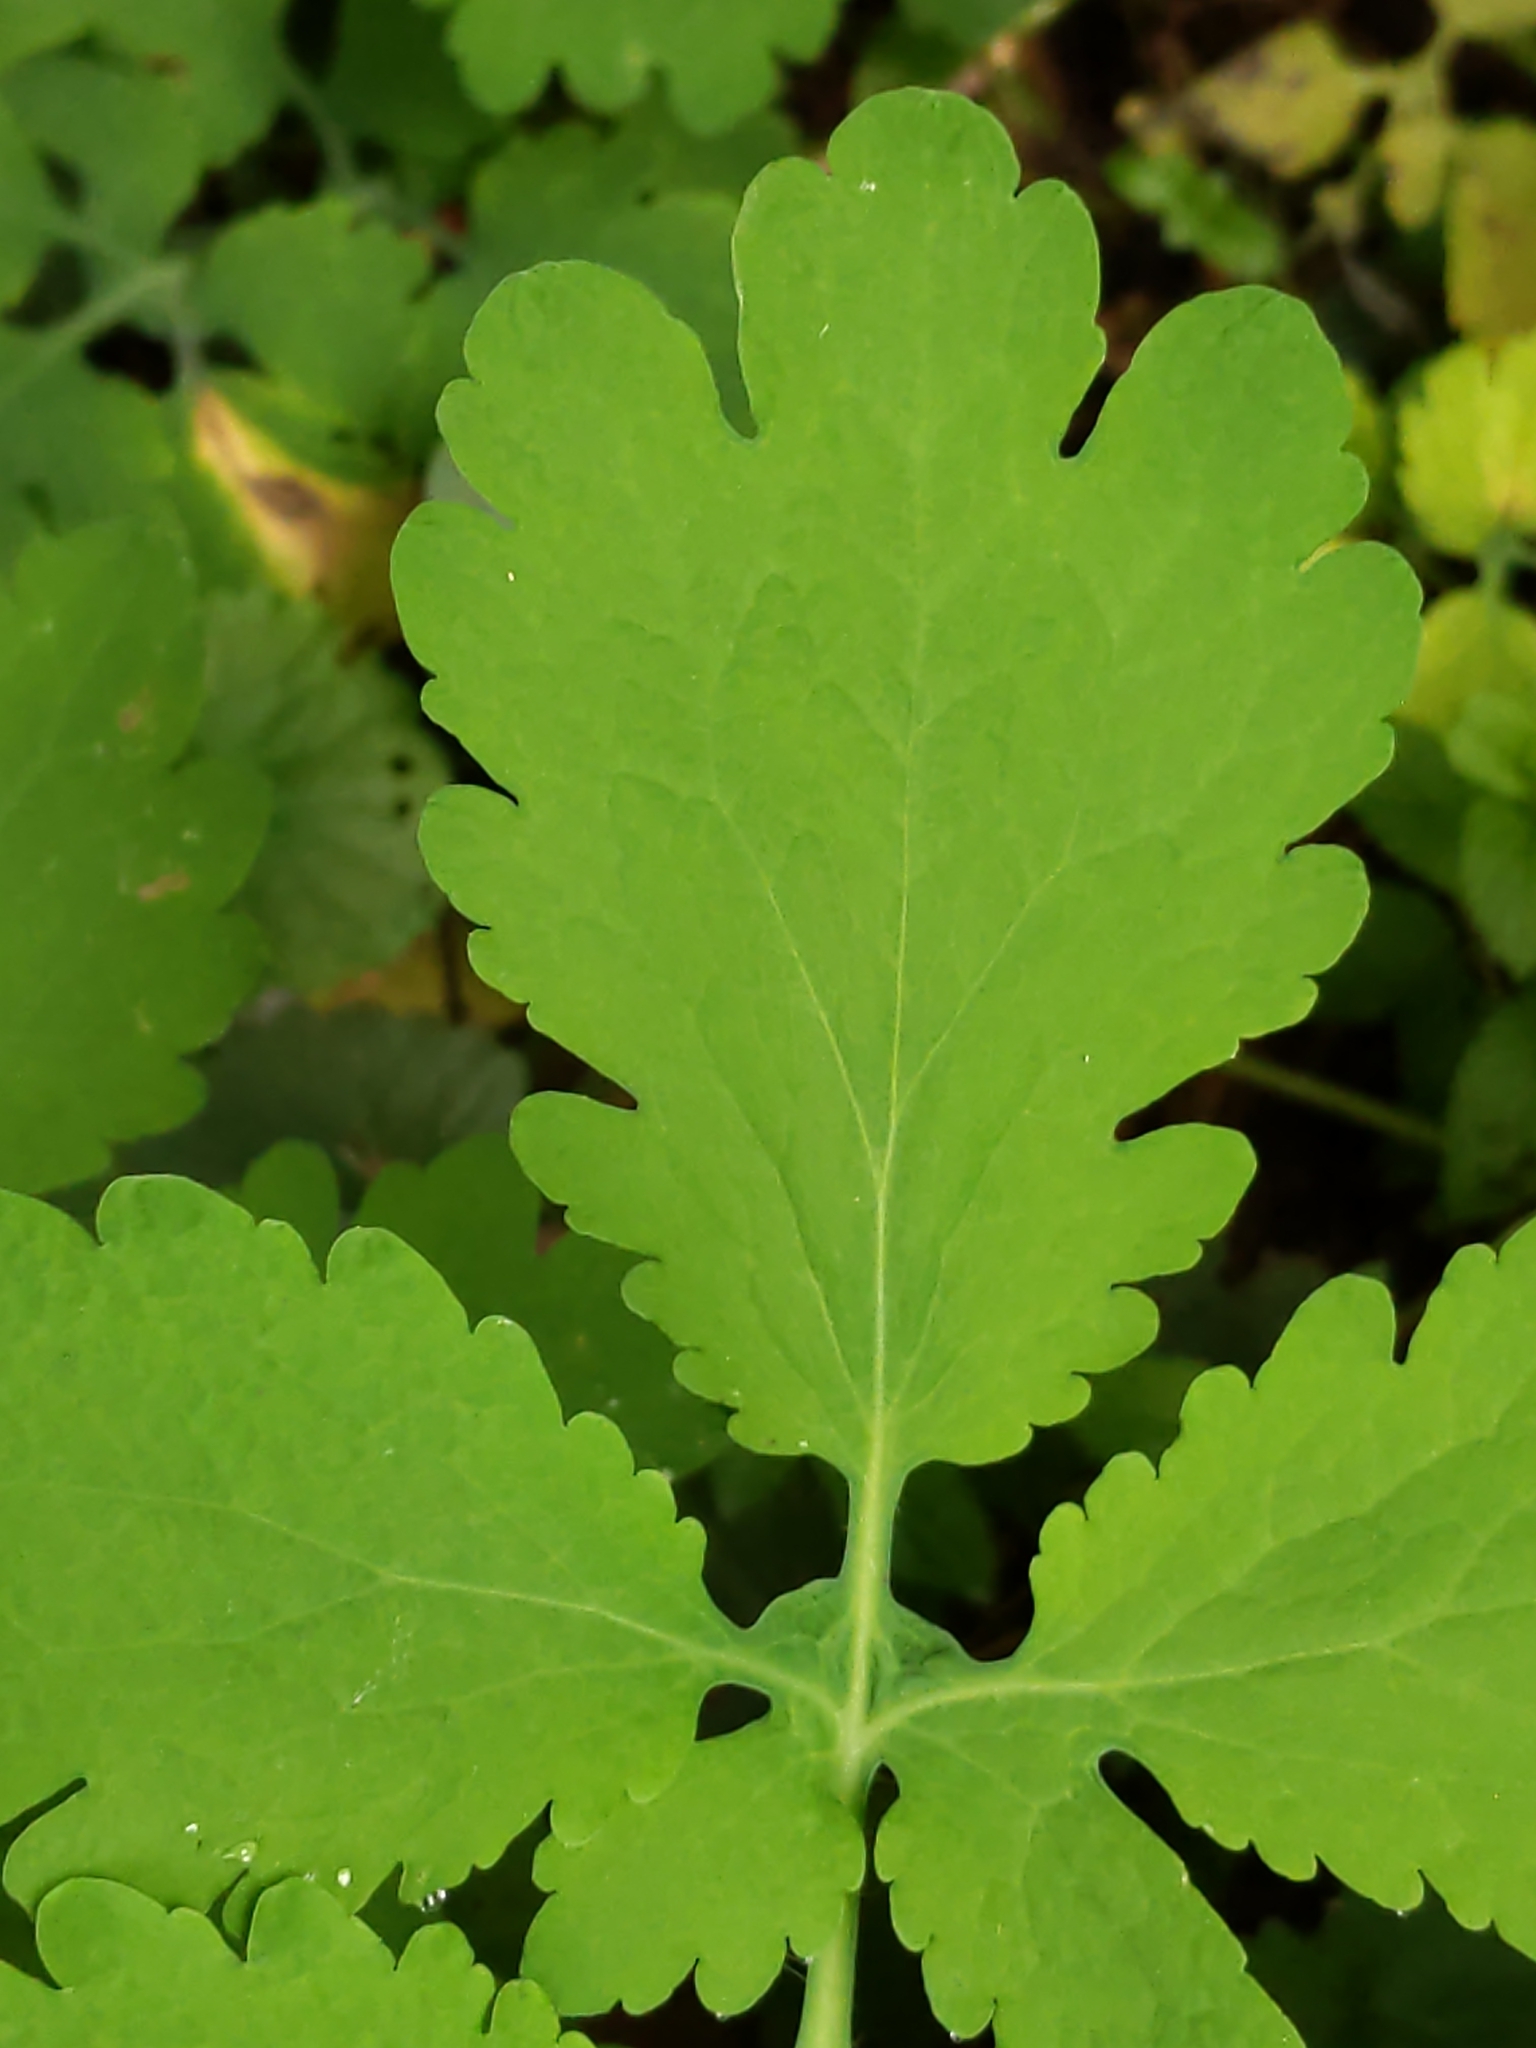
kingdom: Plantae
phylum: Tracheophyta
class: Magnoliopsida
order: Ranunculales
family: Papaveraceae
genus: Chelidonium
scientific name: Chelidonium majus
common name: Greater celandine
